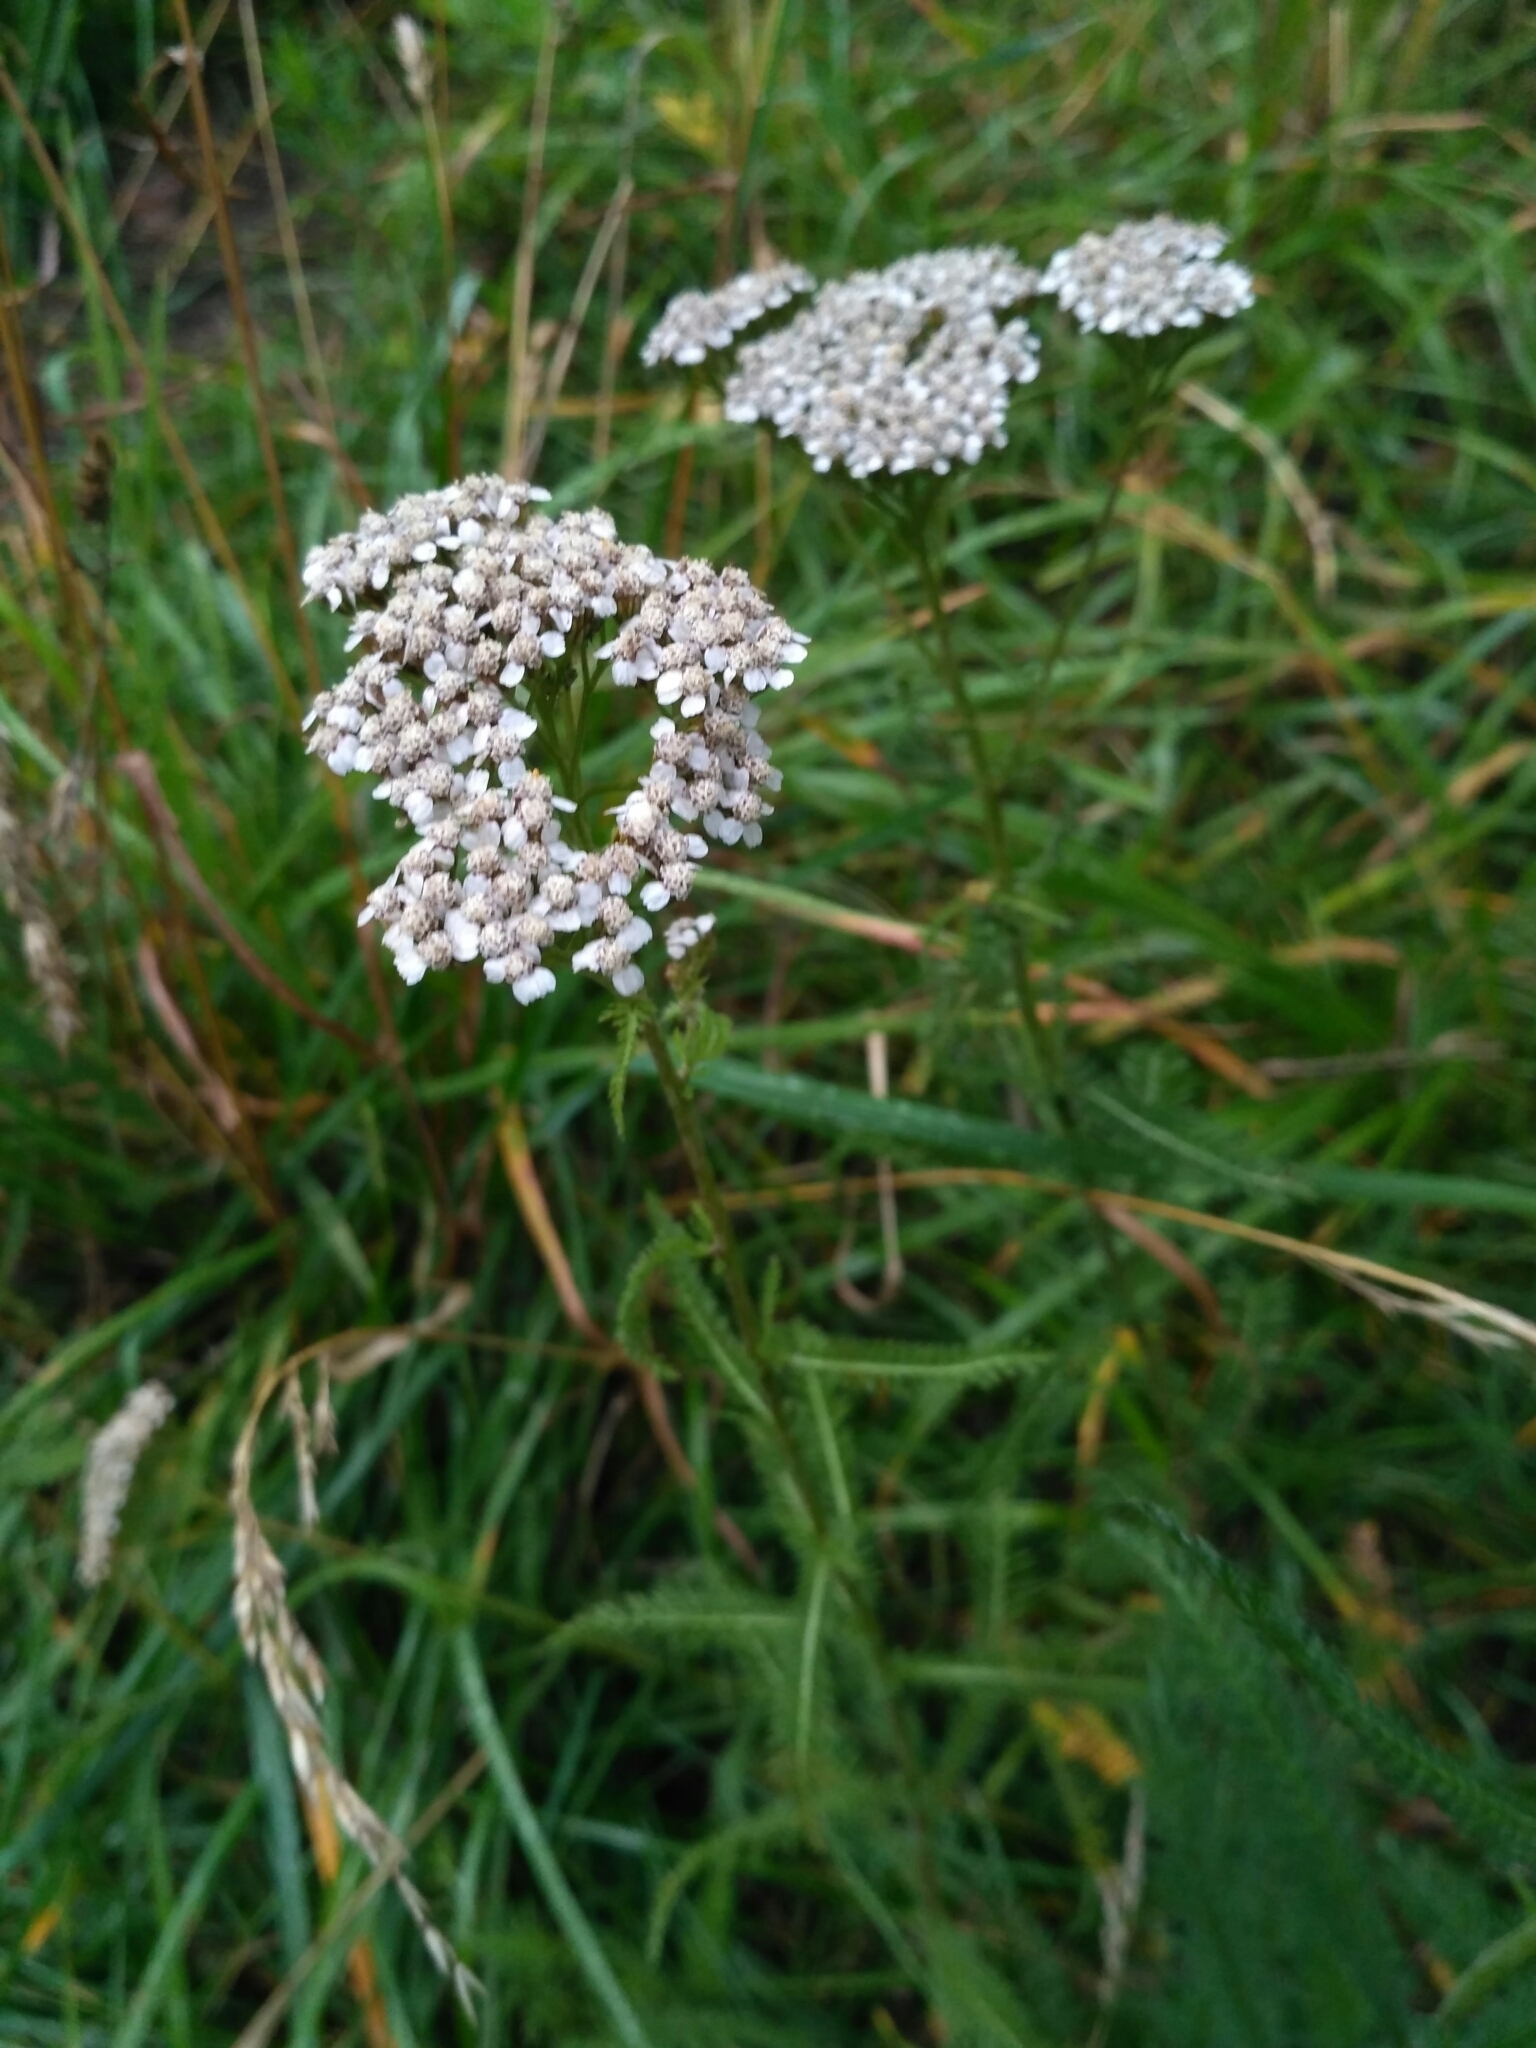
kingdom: Plantae
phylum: Tracheophyta
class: Magnoliopsida
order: Asterales
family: Asteraceae
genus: Achillea
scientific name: Achillea millefolium
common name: Yarrow
